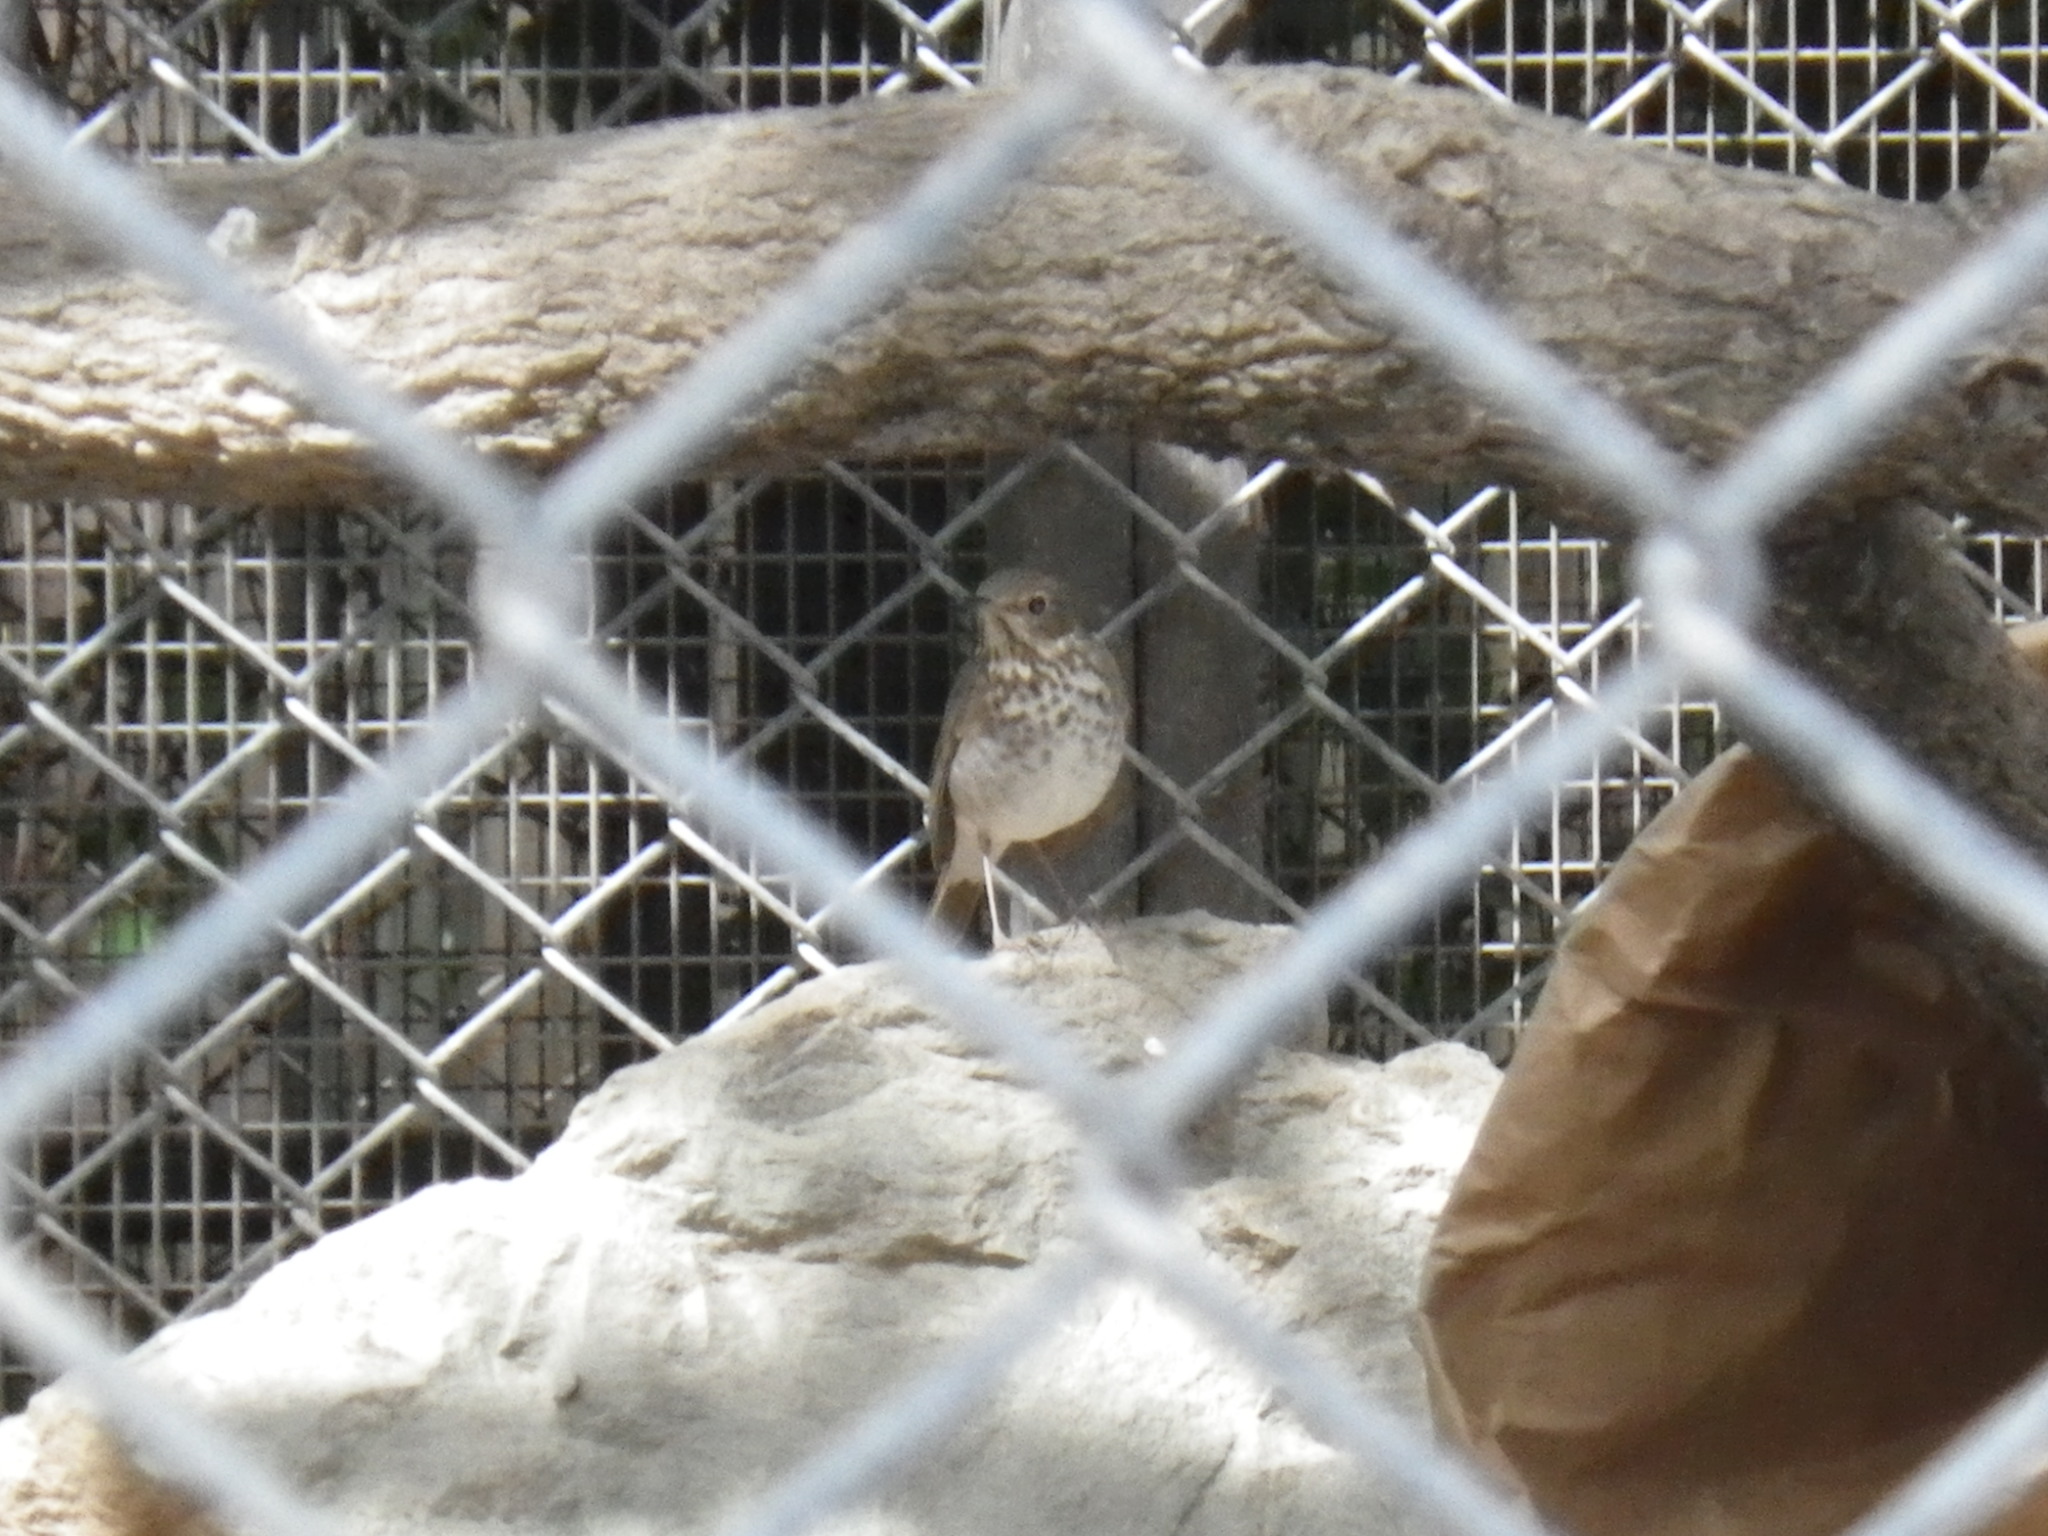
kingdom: Animalia
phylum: Chordata
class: Aves
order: Passeriformes
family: Turdidae
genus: Catharus
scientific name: Catharus guttatus
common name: Hermit thrush
